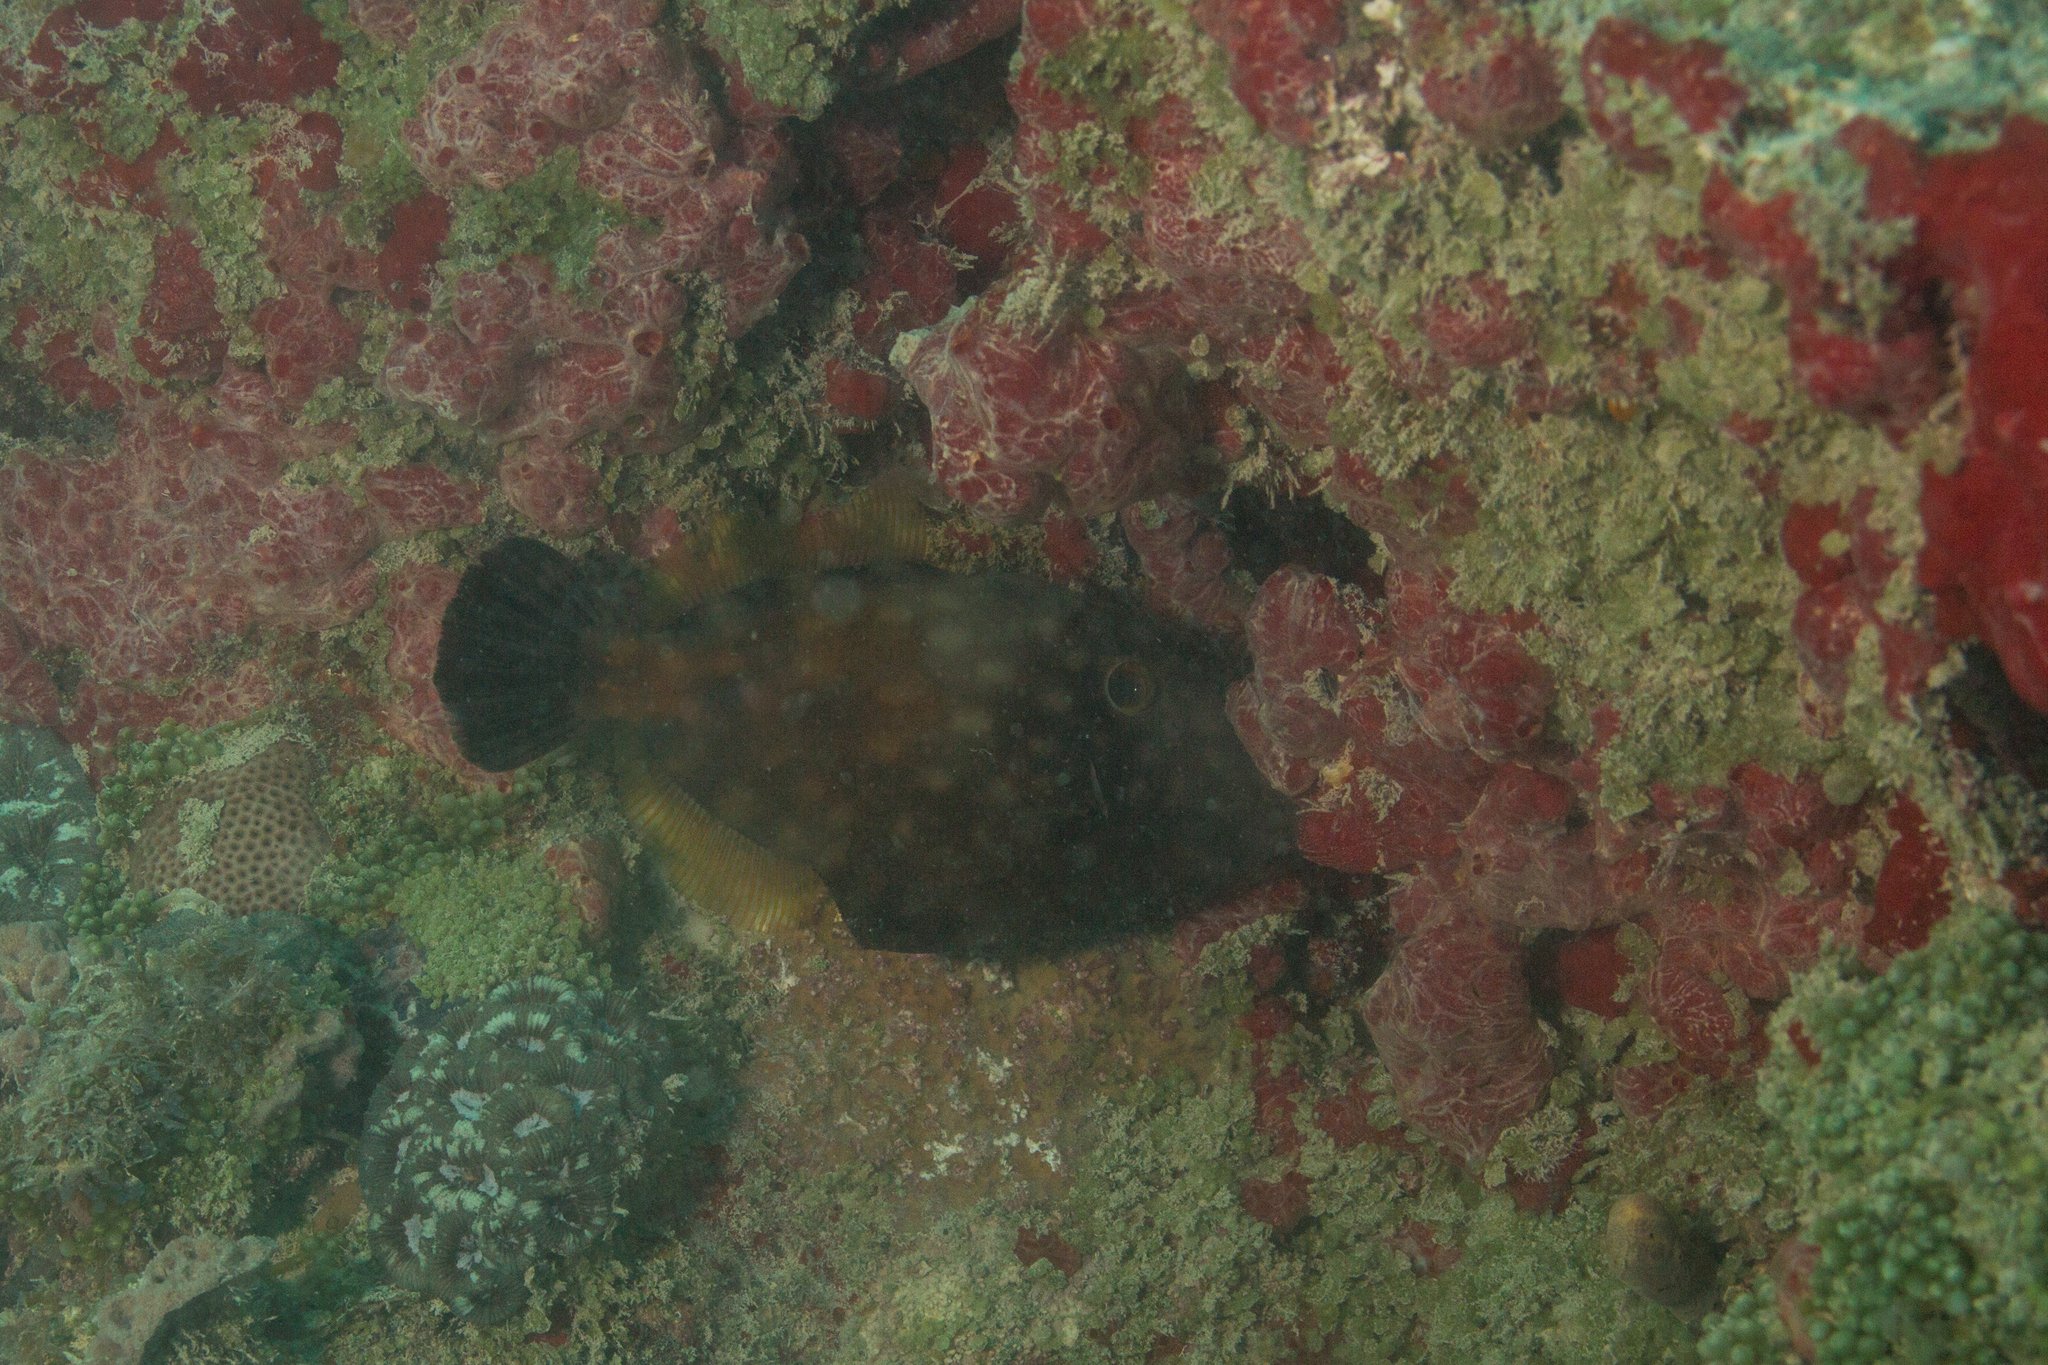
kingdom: Animalia
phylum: Chordata
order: Tetraodontiformes
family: Monacanthidae
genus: Cantherhines
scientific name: Cantherhines macrocerus
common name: Whitespotted filefish
